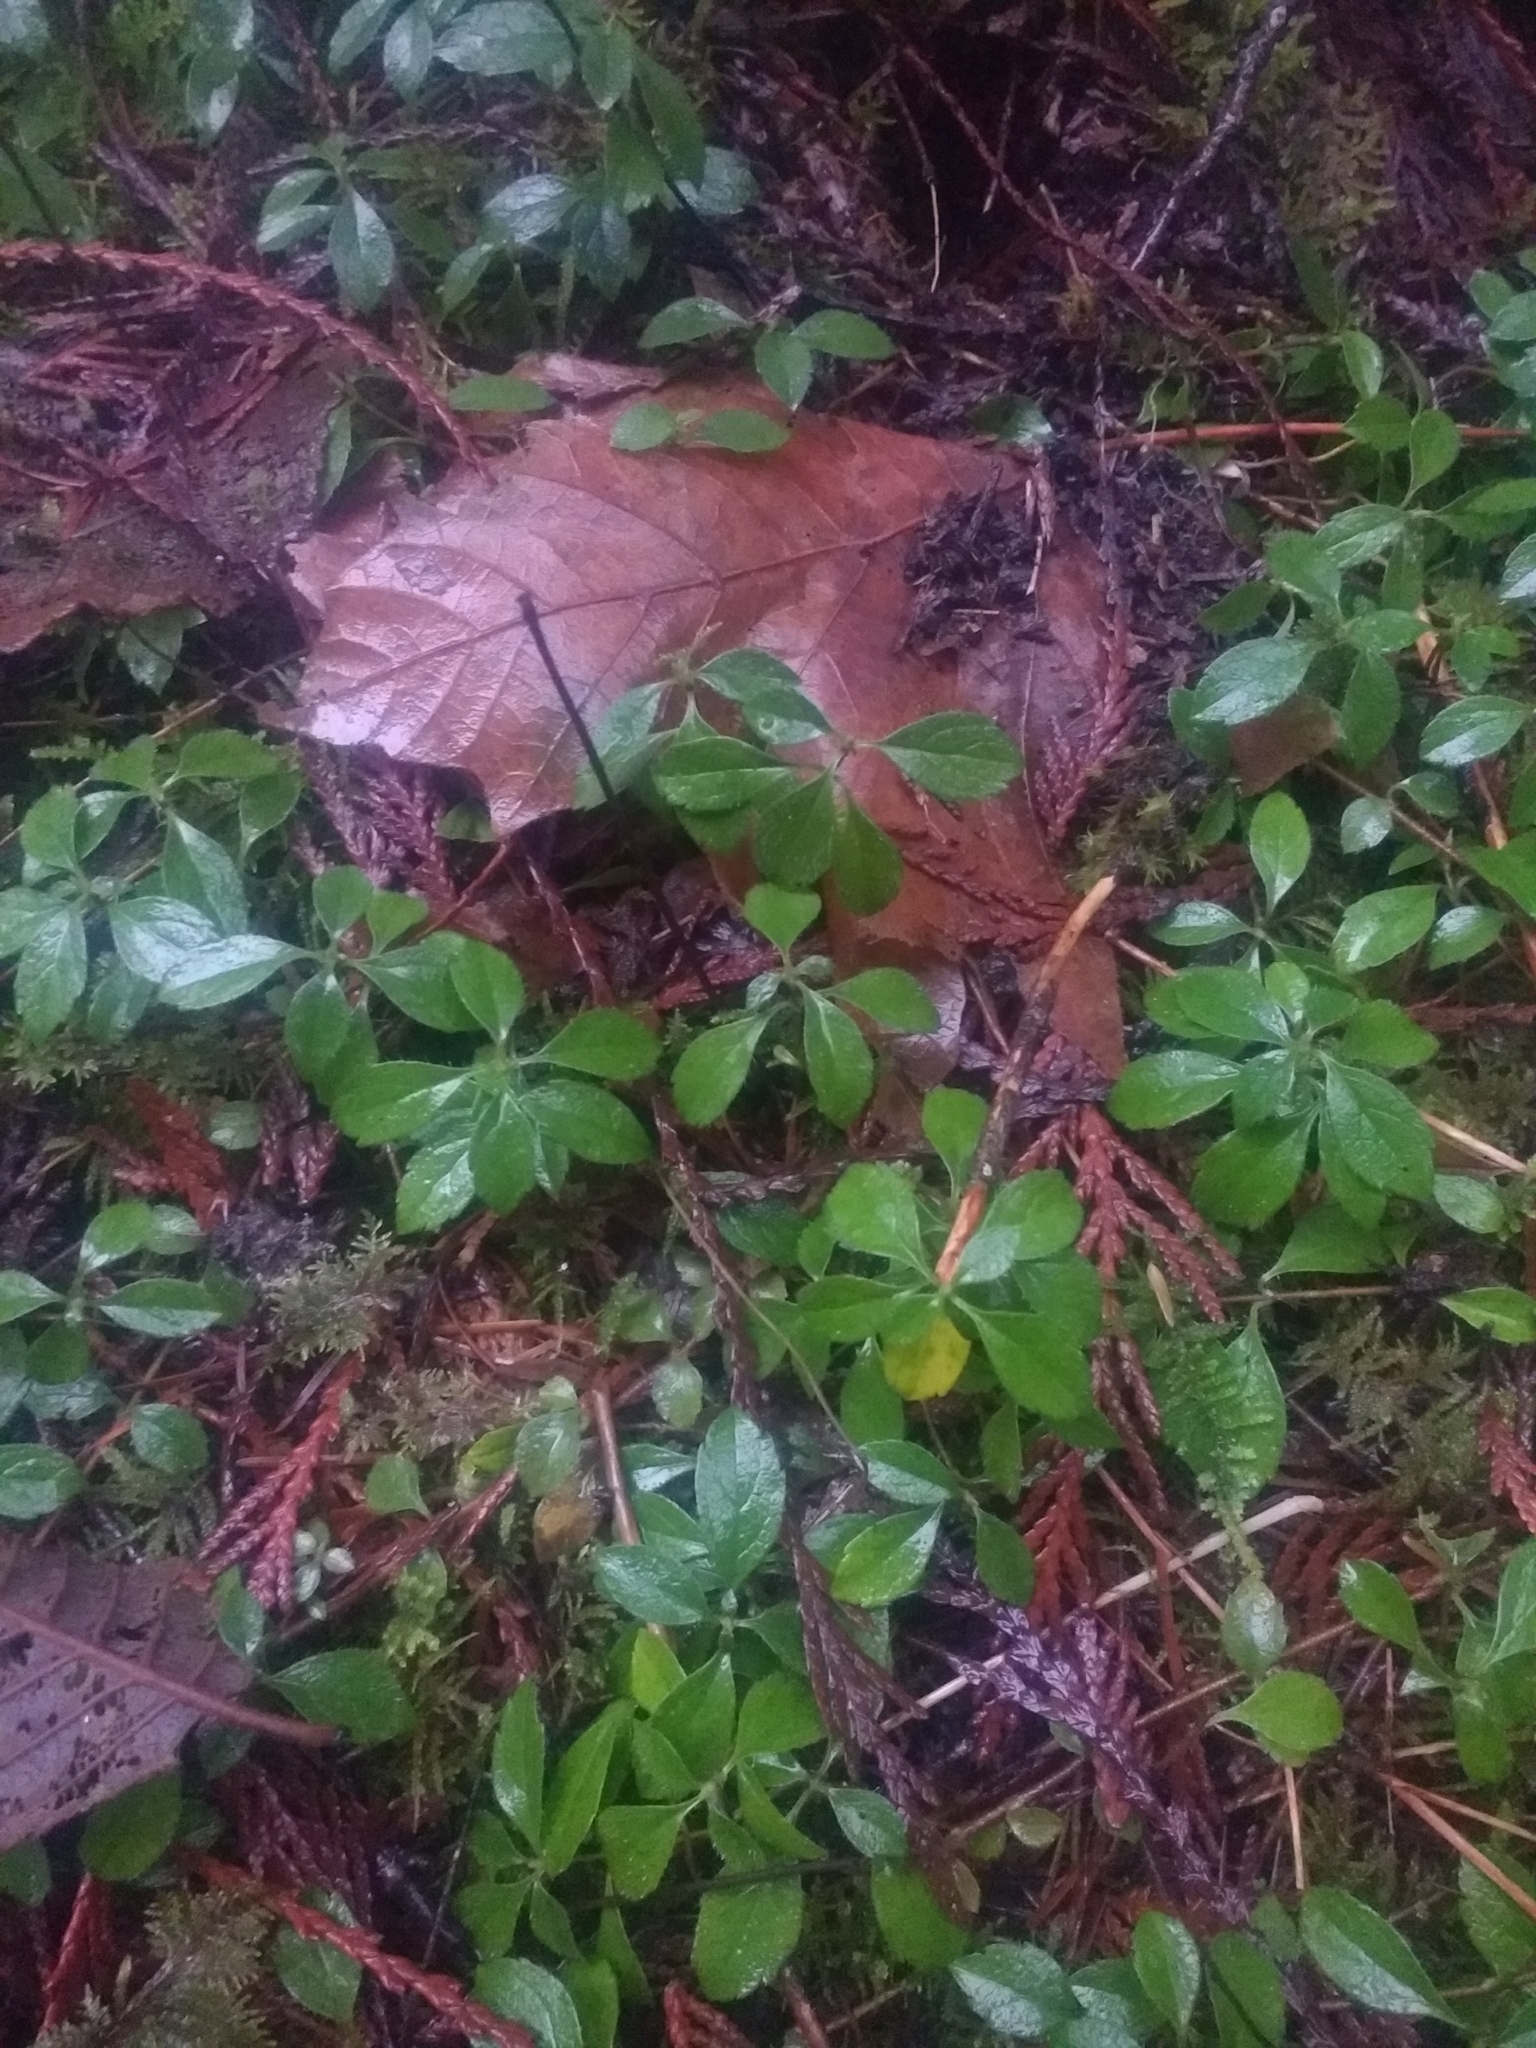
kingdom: Plantae
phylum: Tracheophyta
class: Magnoliopsida
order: Dipsacales
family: Caprifoliaceae
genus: Linnaea
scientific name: Linnaea borealis
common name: Twinflower
